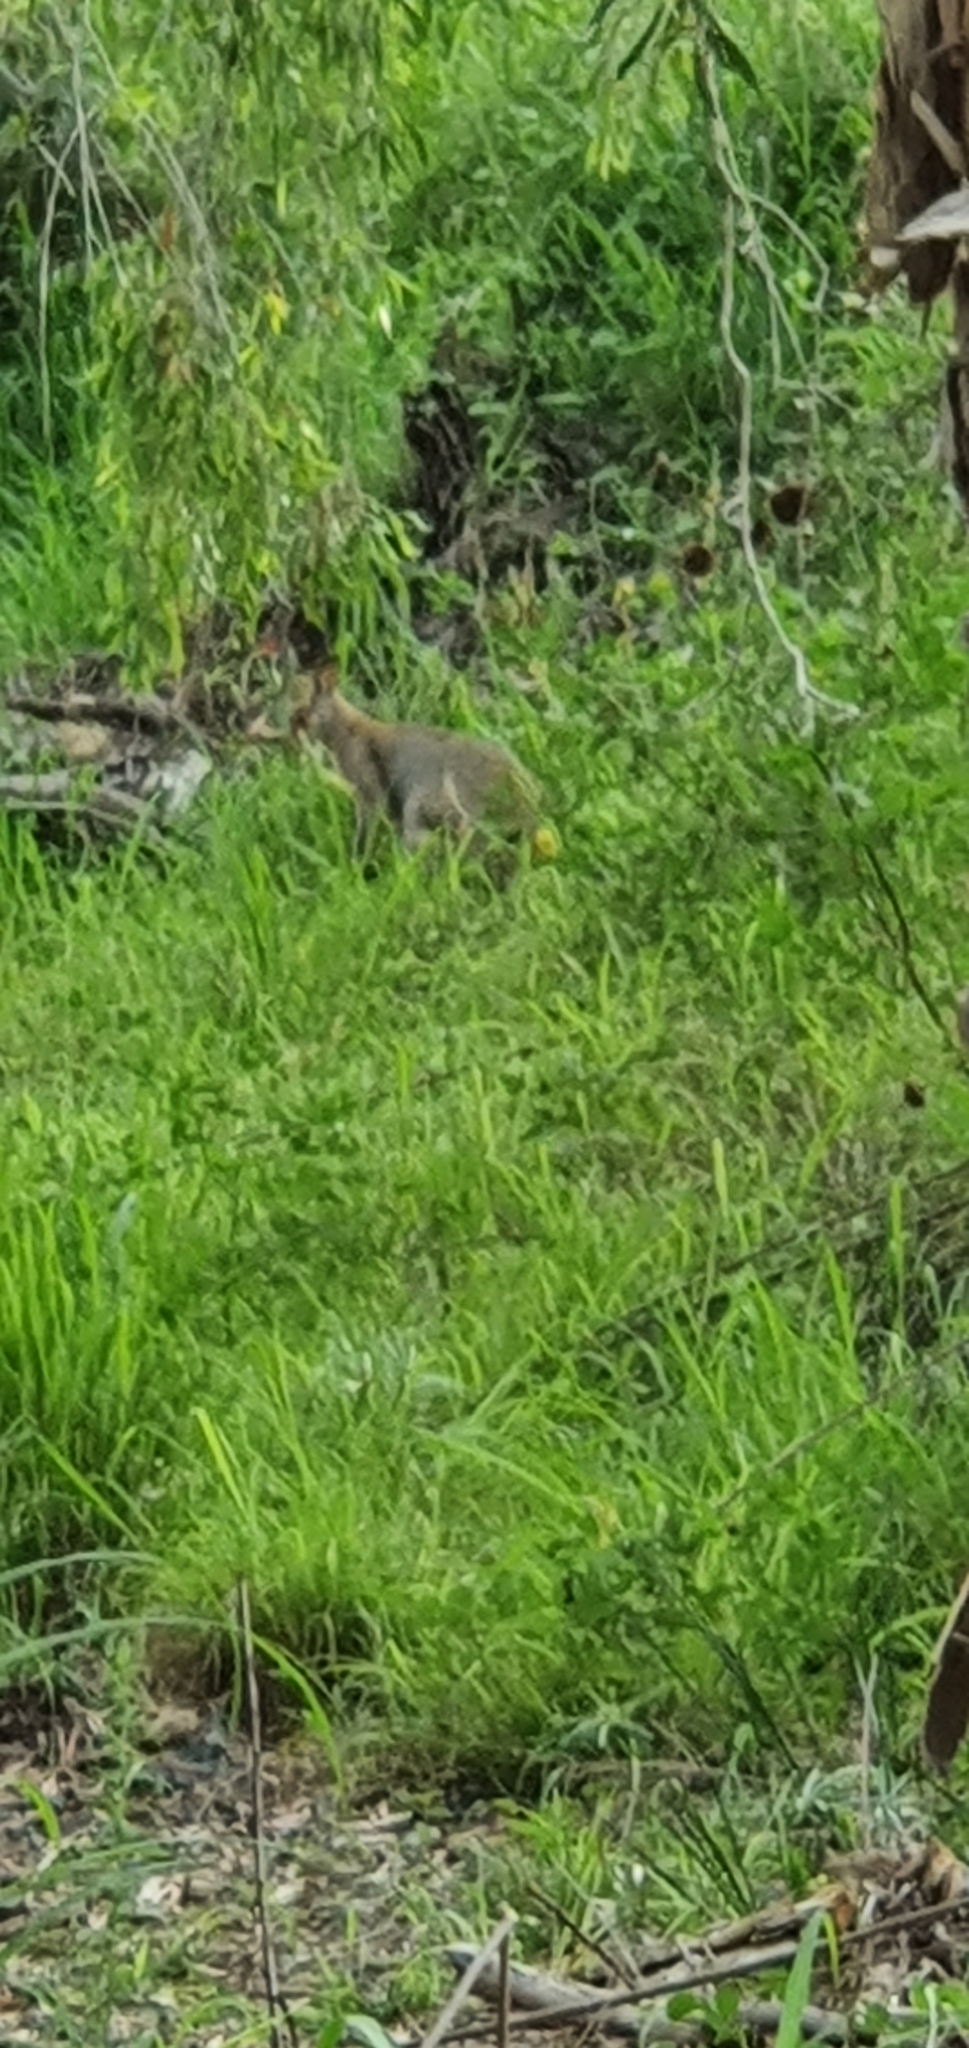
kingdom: Animalia
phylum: Chordata
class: Mammalia
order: Diprotodontia
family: Macropodidae
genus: Macropus
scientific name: Macropus agilis
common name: Agile wallaby
